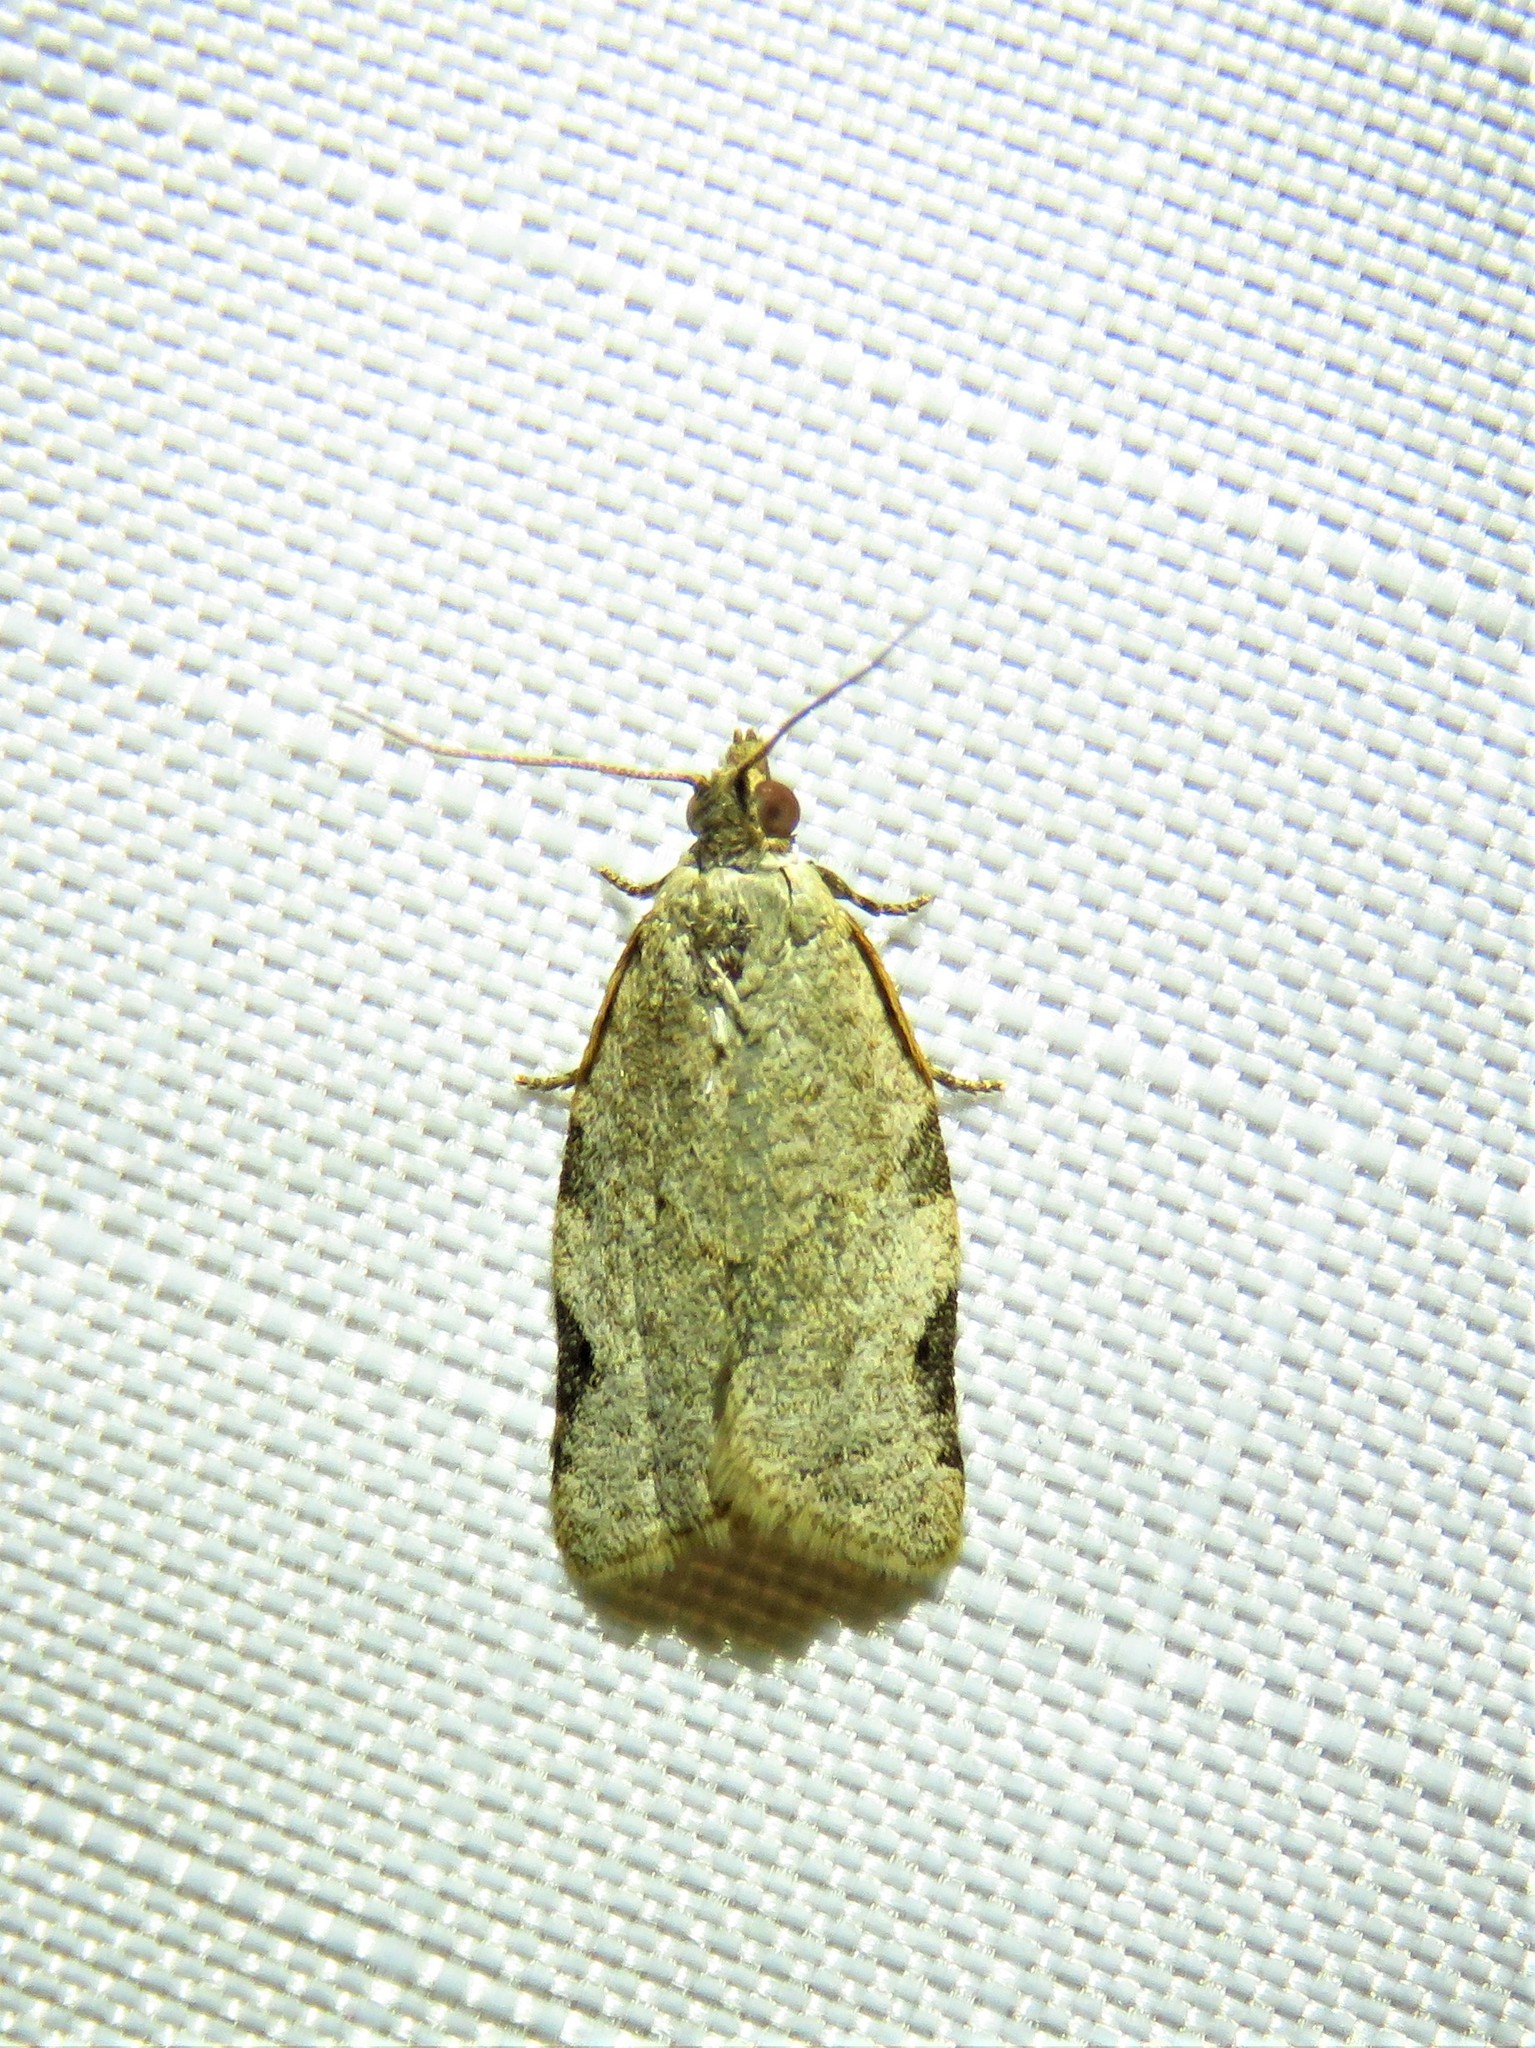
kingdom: Animalia
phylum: Arthropoda
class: Insecta
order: Lepidoptera
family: Tortricidae
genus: Clepsis
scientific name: Clepsis virescana
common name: Greenish apple moth
